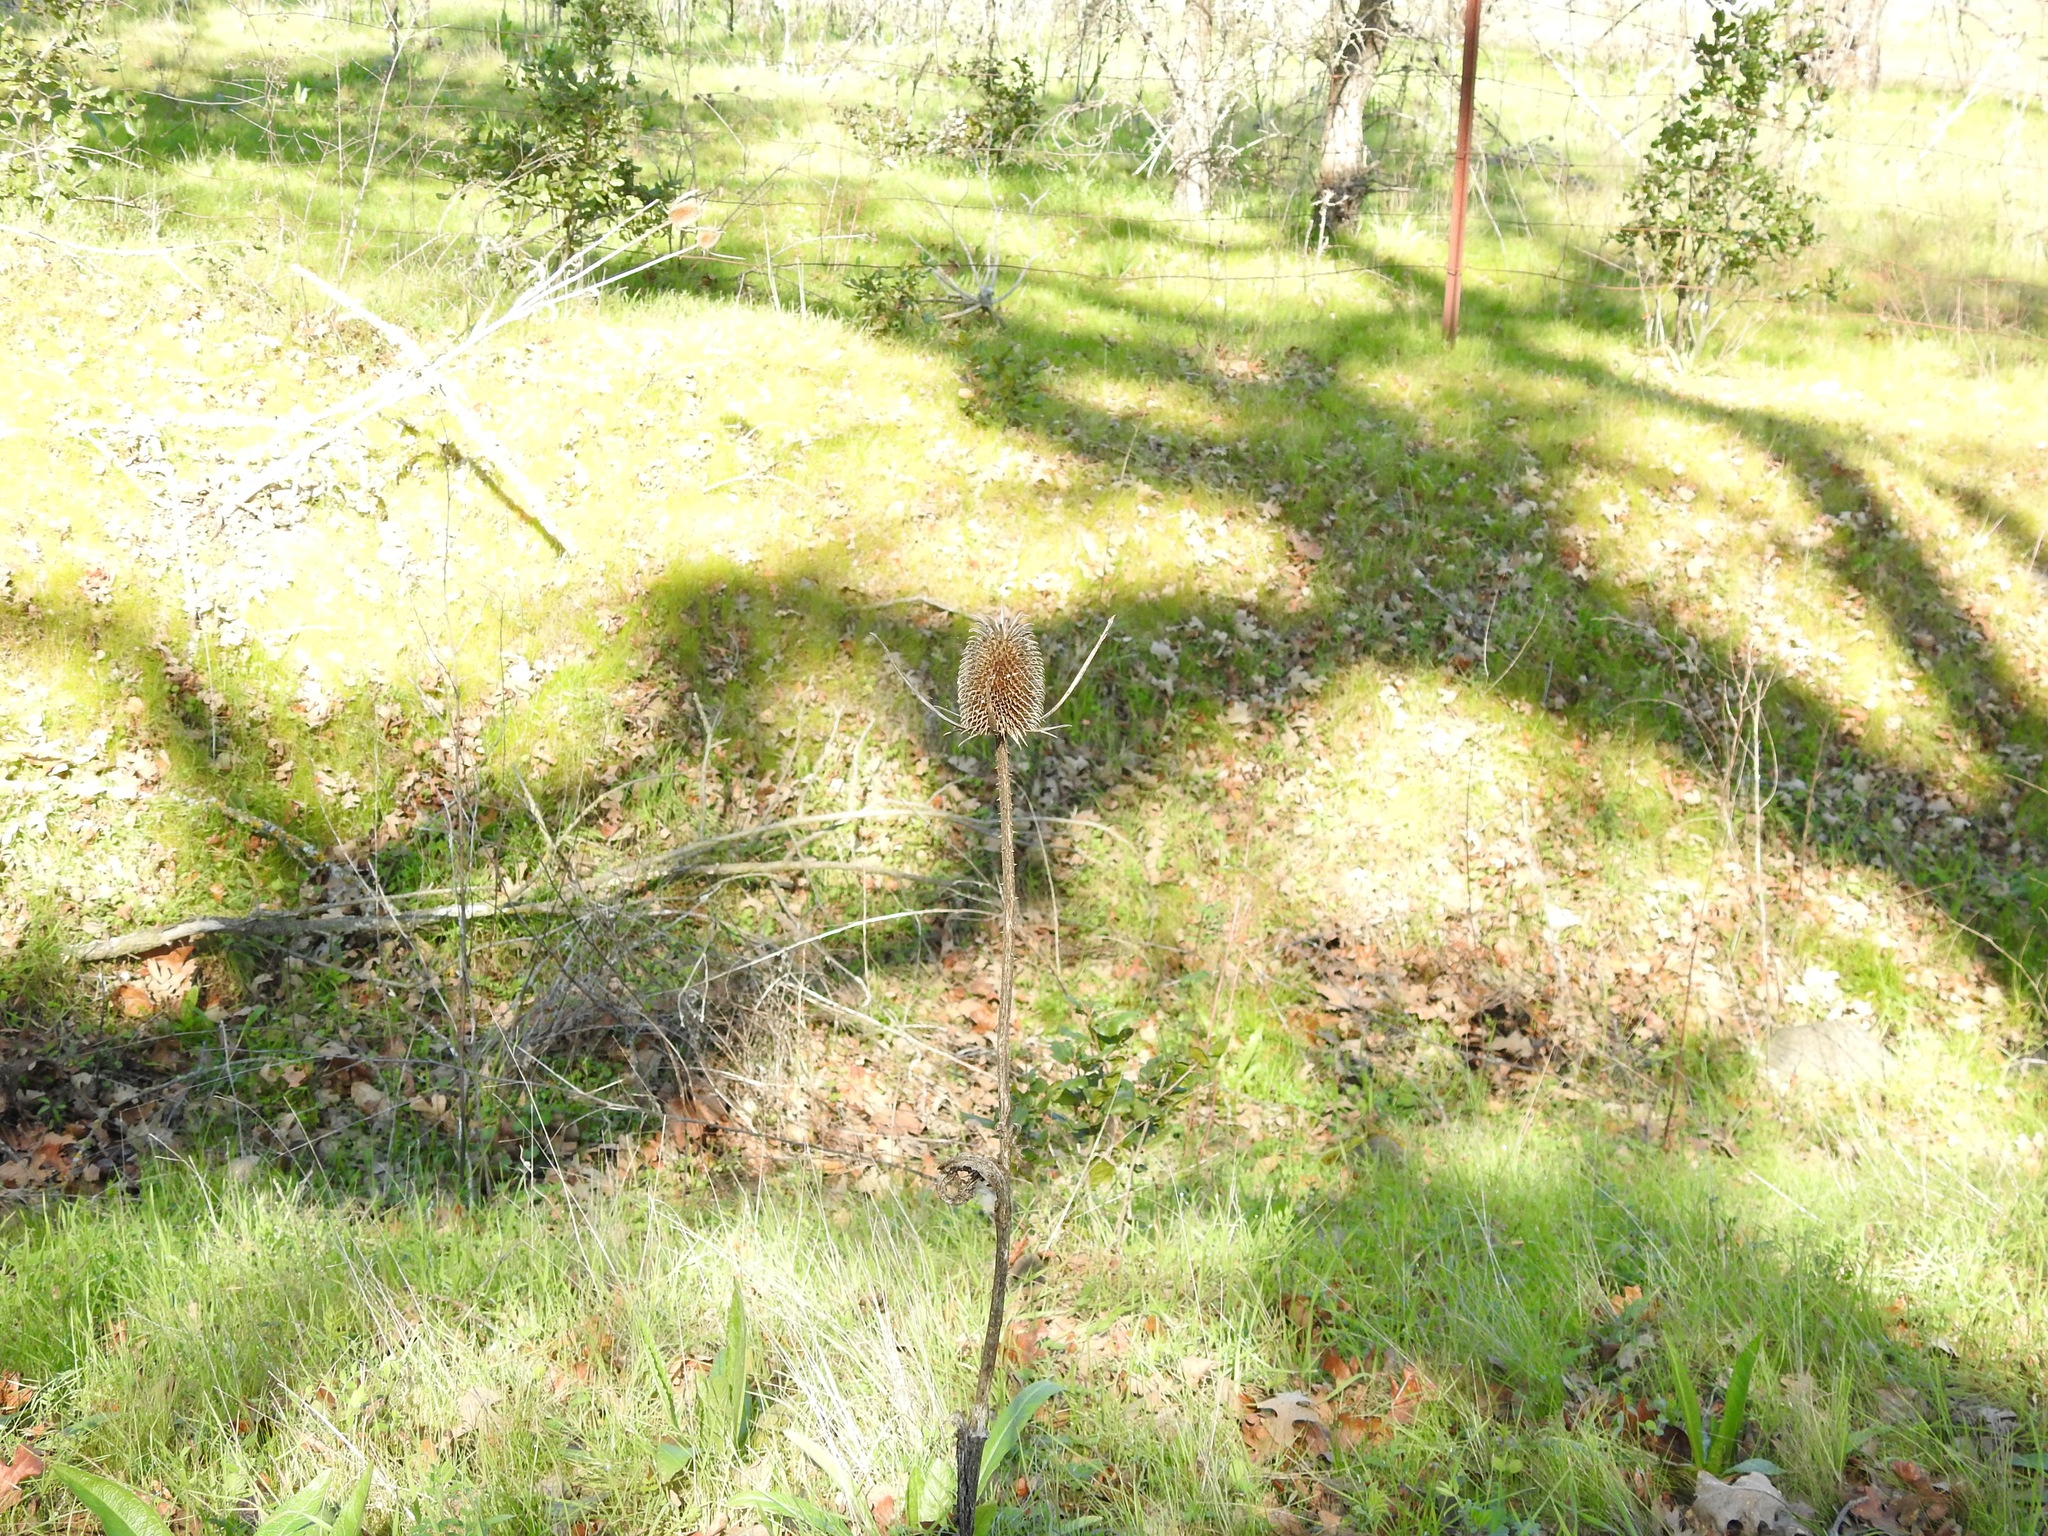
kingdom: Plantae
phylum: Tracheophyta
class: Magnoliopsida
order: Dipsacales
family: Caprifoliaceae
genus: Dipsacus
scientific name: Dipsacus sativus
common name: Fuller's teasel
